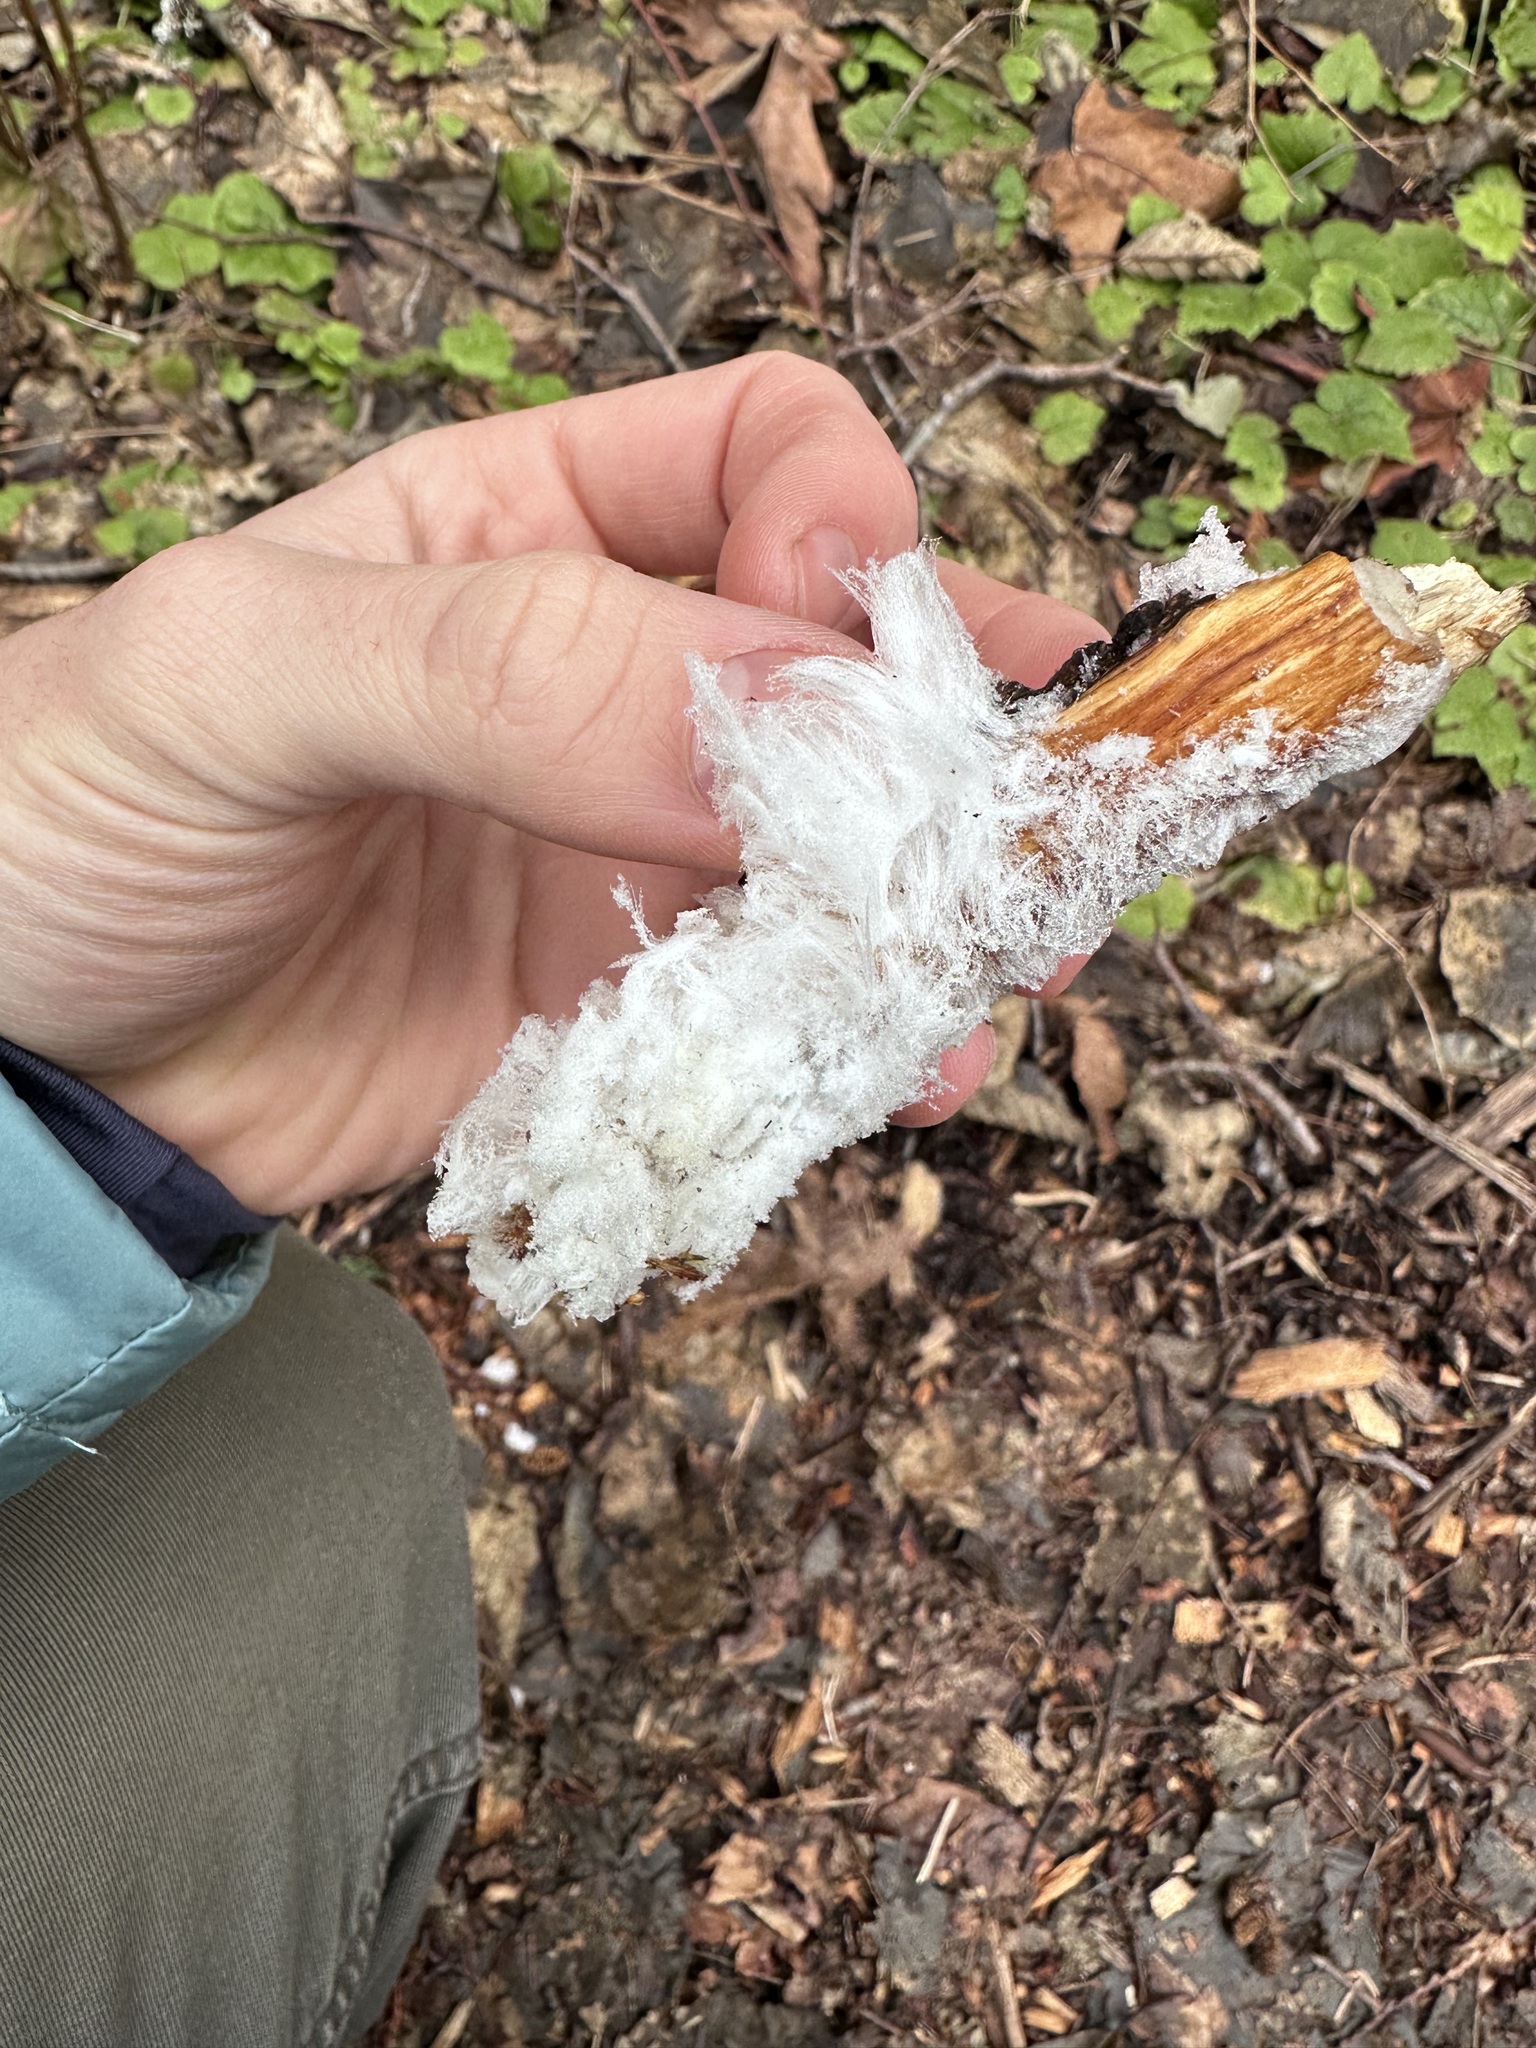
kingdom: Fungi
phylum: Basidiomycota
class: Agaricomycetes
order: Auriculariales
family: Auriculariaceae
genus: Exidiopsis
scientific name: Exidiopsis effusa
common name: Hair ice crust
